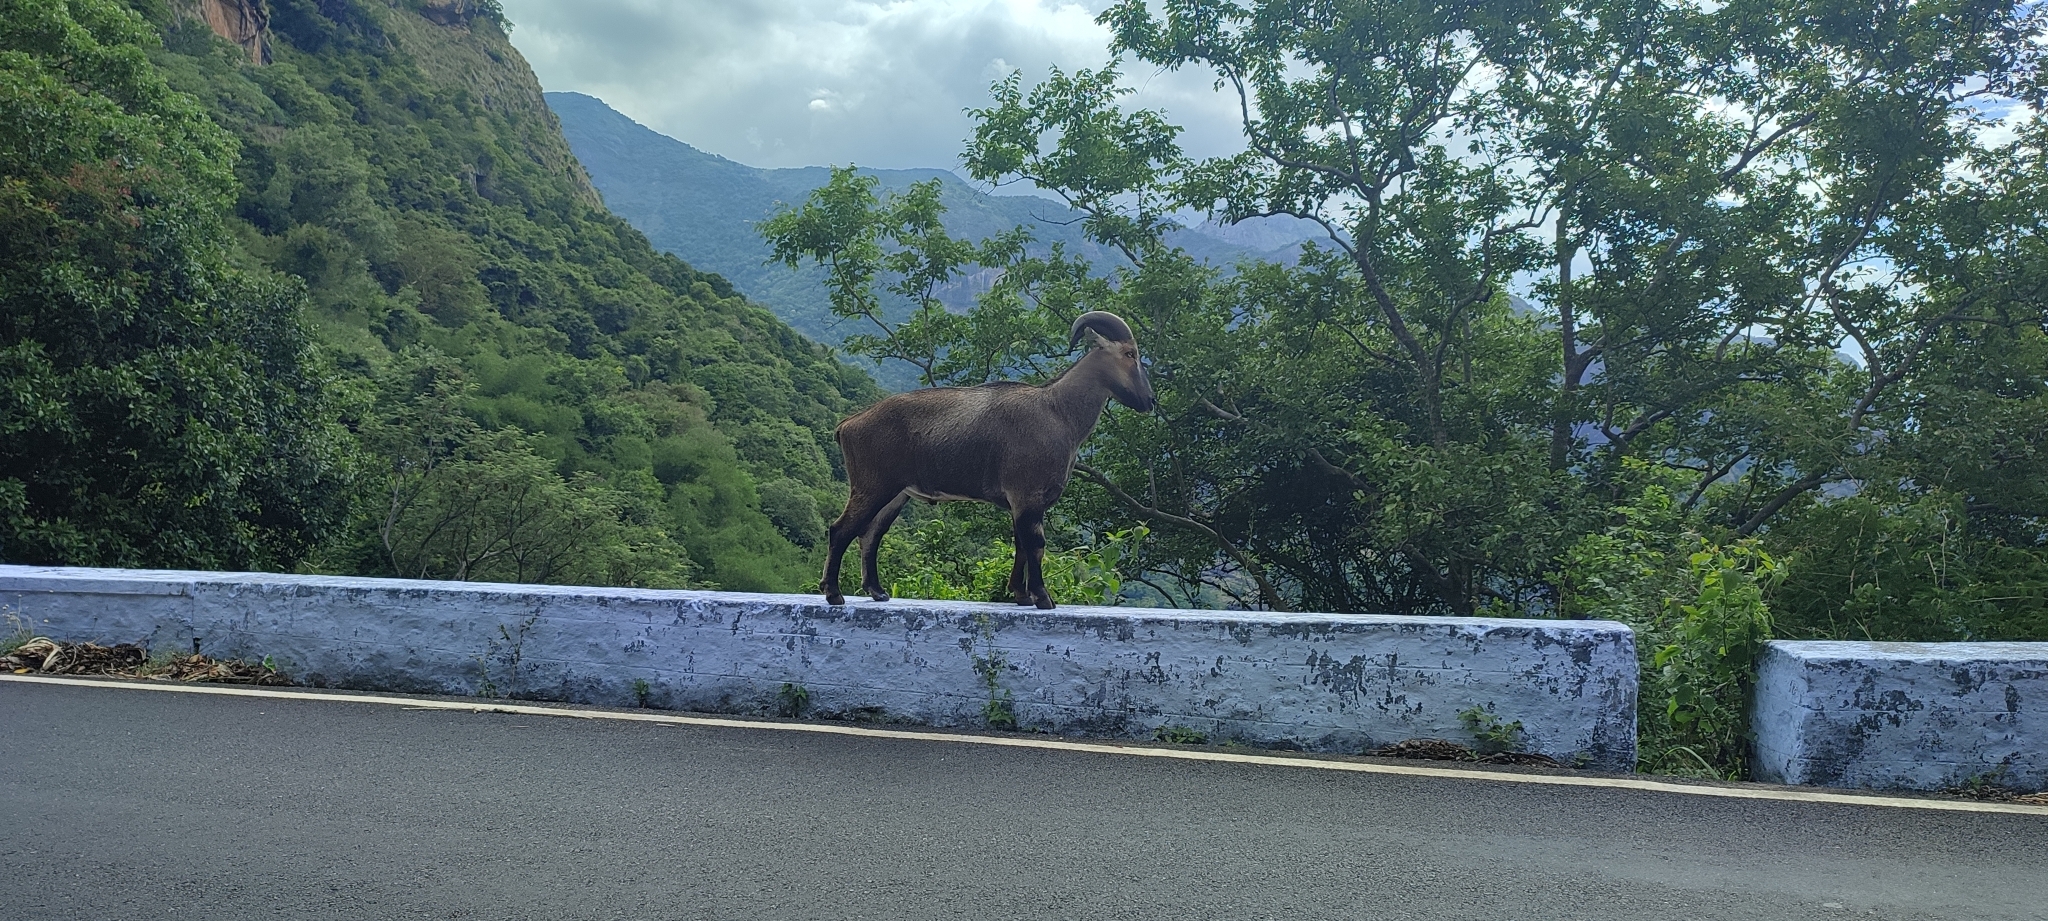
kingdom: Animalia
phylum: Chordata
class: Mammalia
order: Artiodactyla
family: Bovidae
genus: Hemitragus
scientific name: Hemitragus hylocrius
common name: Nilgiri tahr
